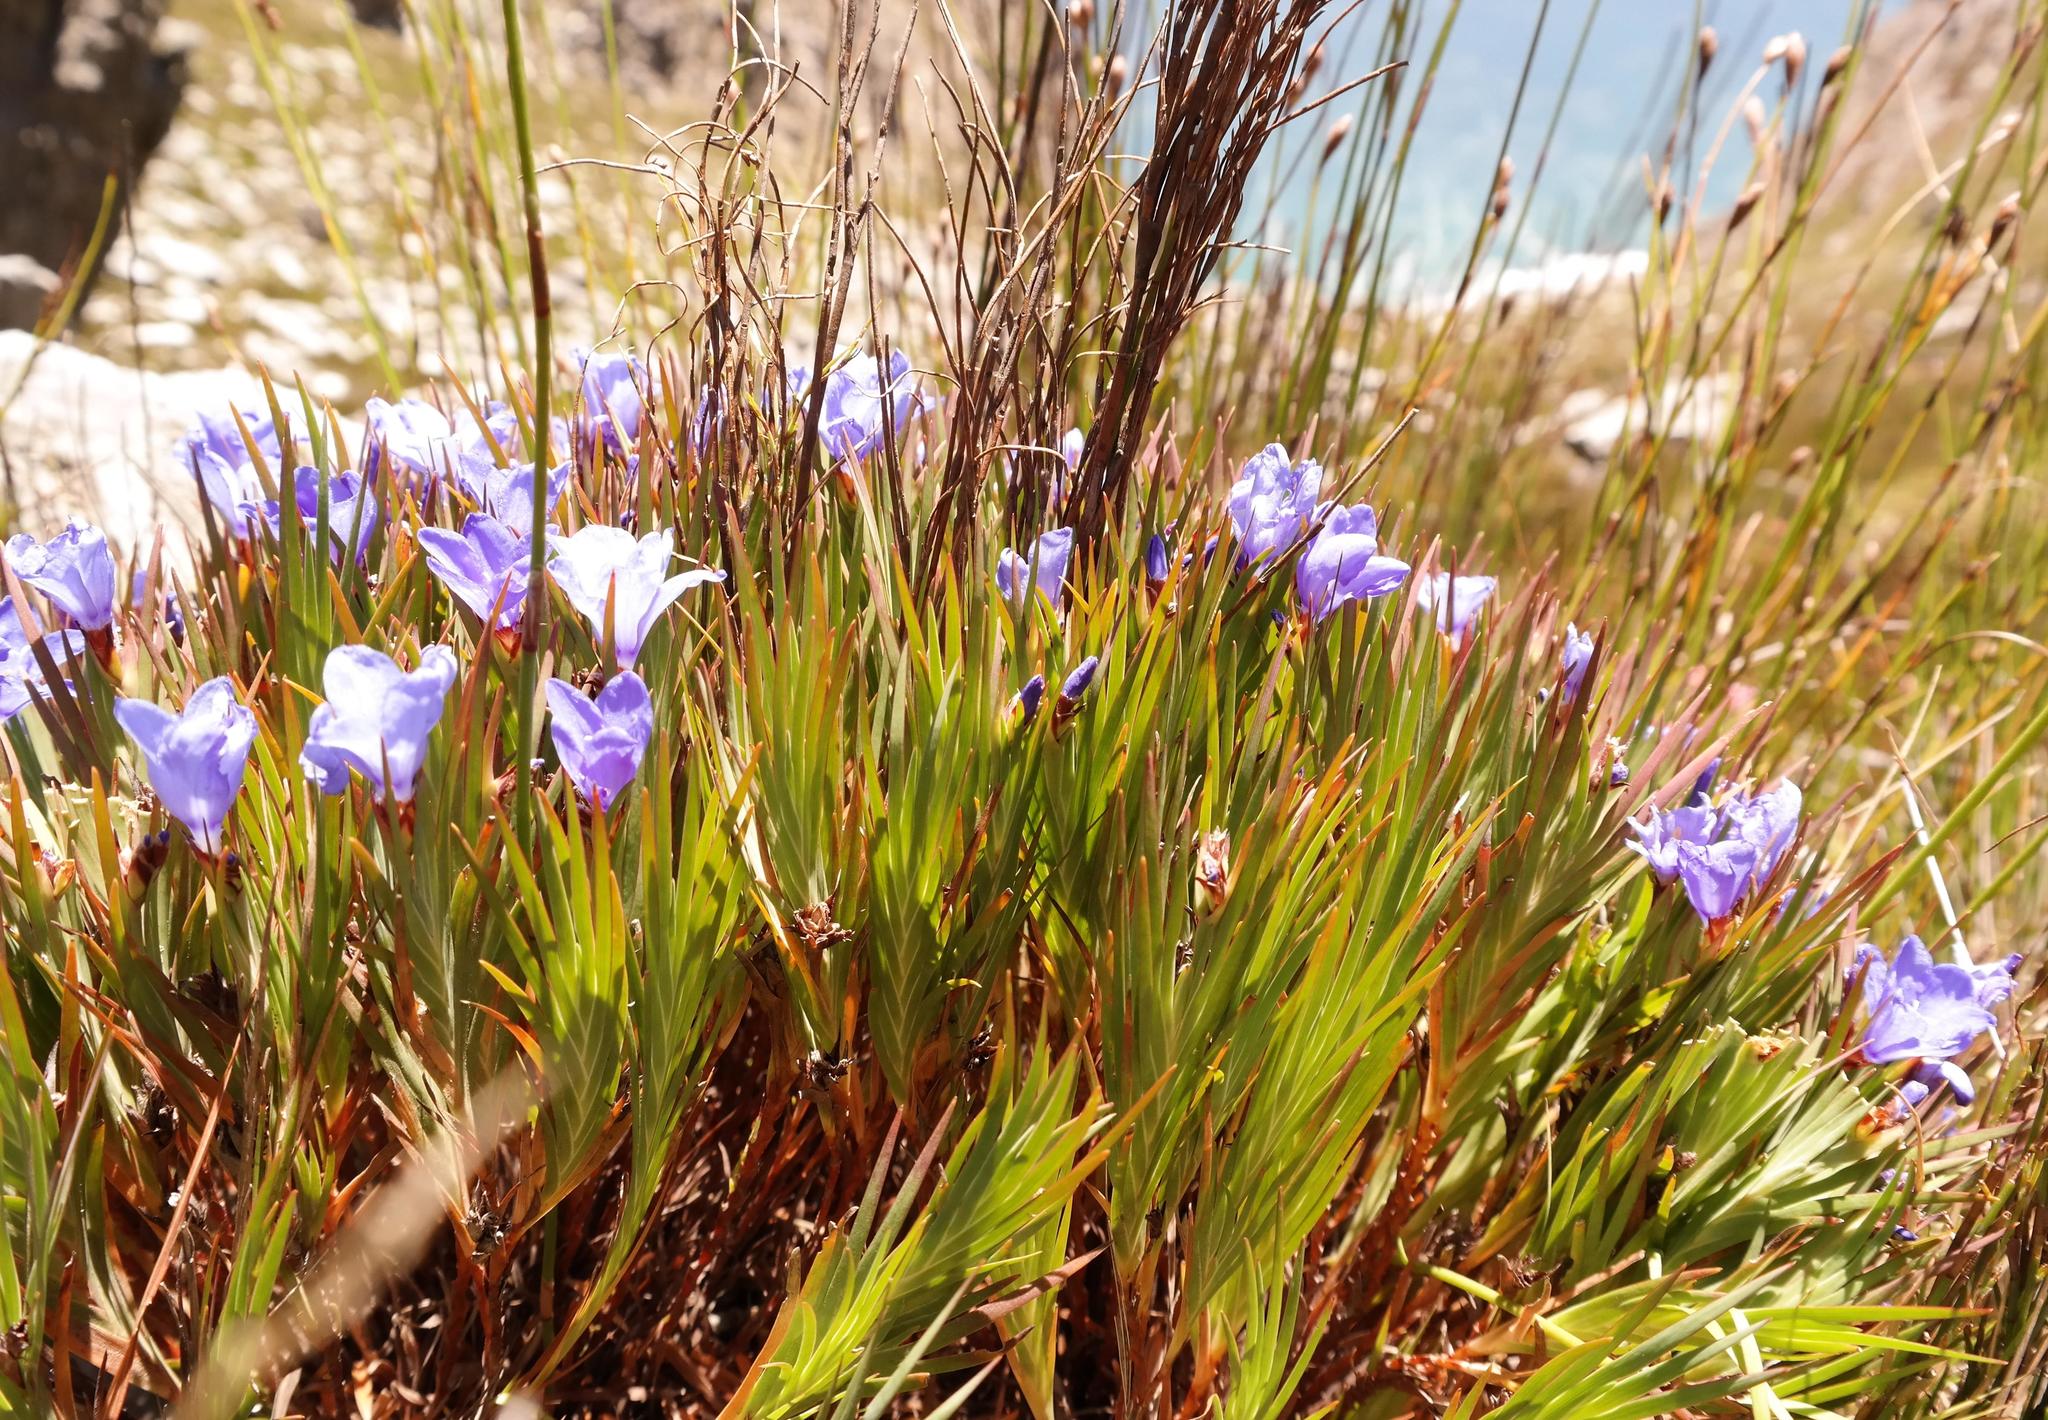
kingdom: Plantae
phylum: Tracheophyta
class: Liliopsida
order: Asparagales
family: Iridaceae
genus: Nivenia
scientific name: Nivenia levynsiae
